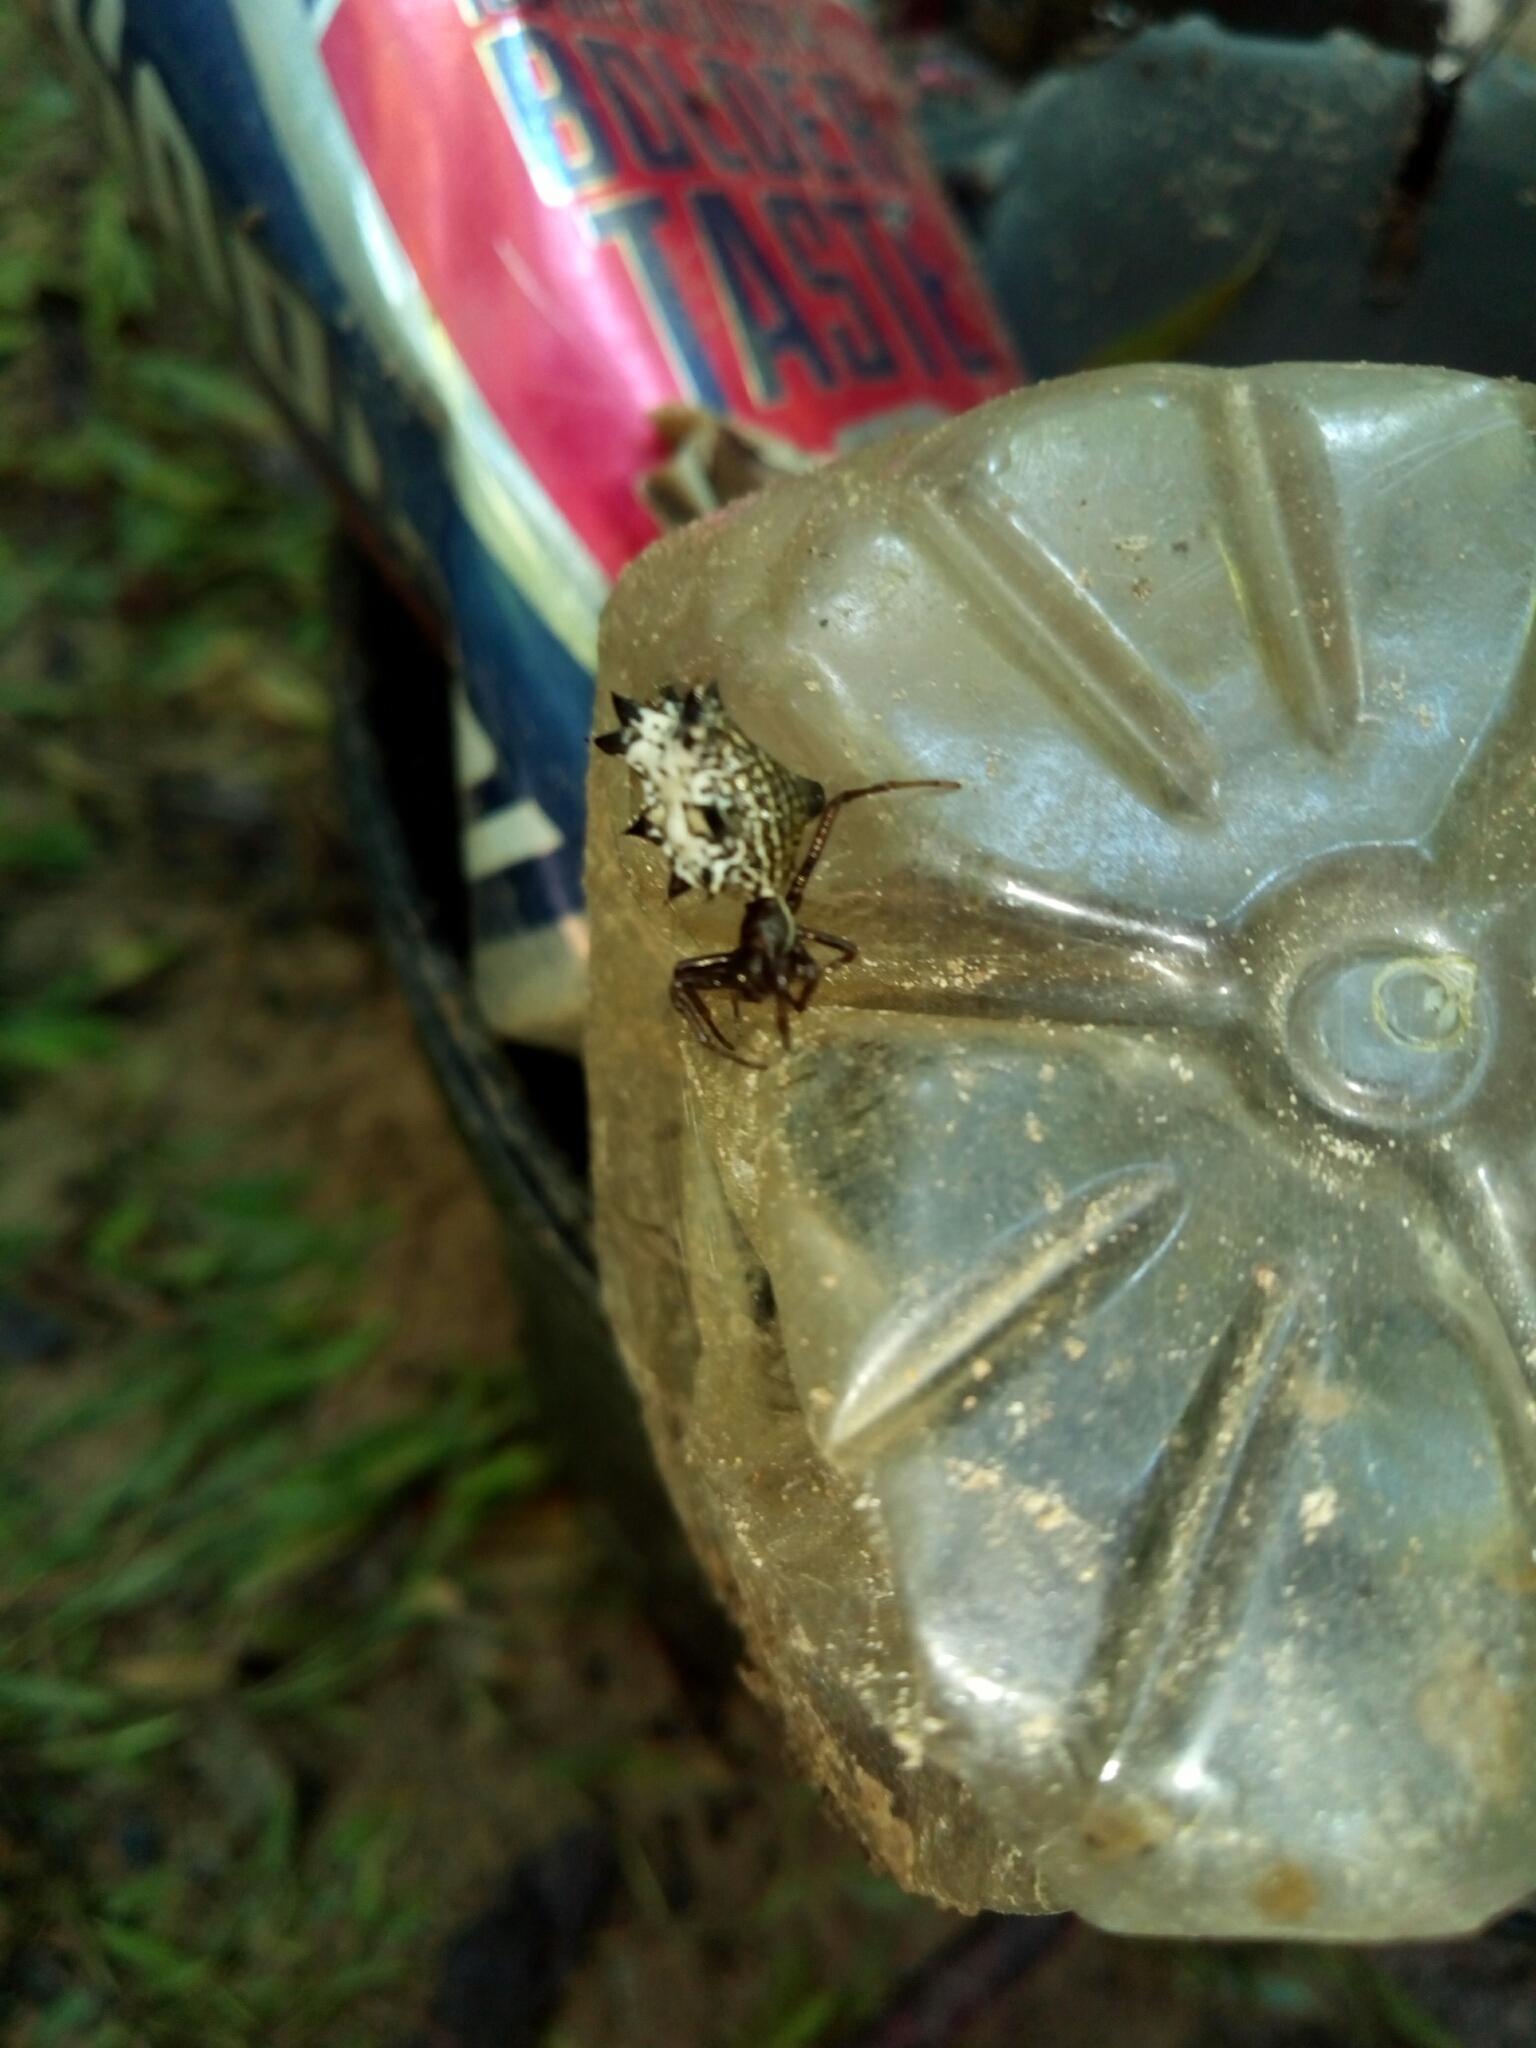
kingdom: Animalia
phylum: Arthropoda
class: Arachnida
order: Araneae
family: Araneidae
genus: Micrathena
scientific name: Micrathena gracilis
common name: Orb weavers
